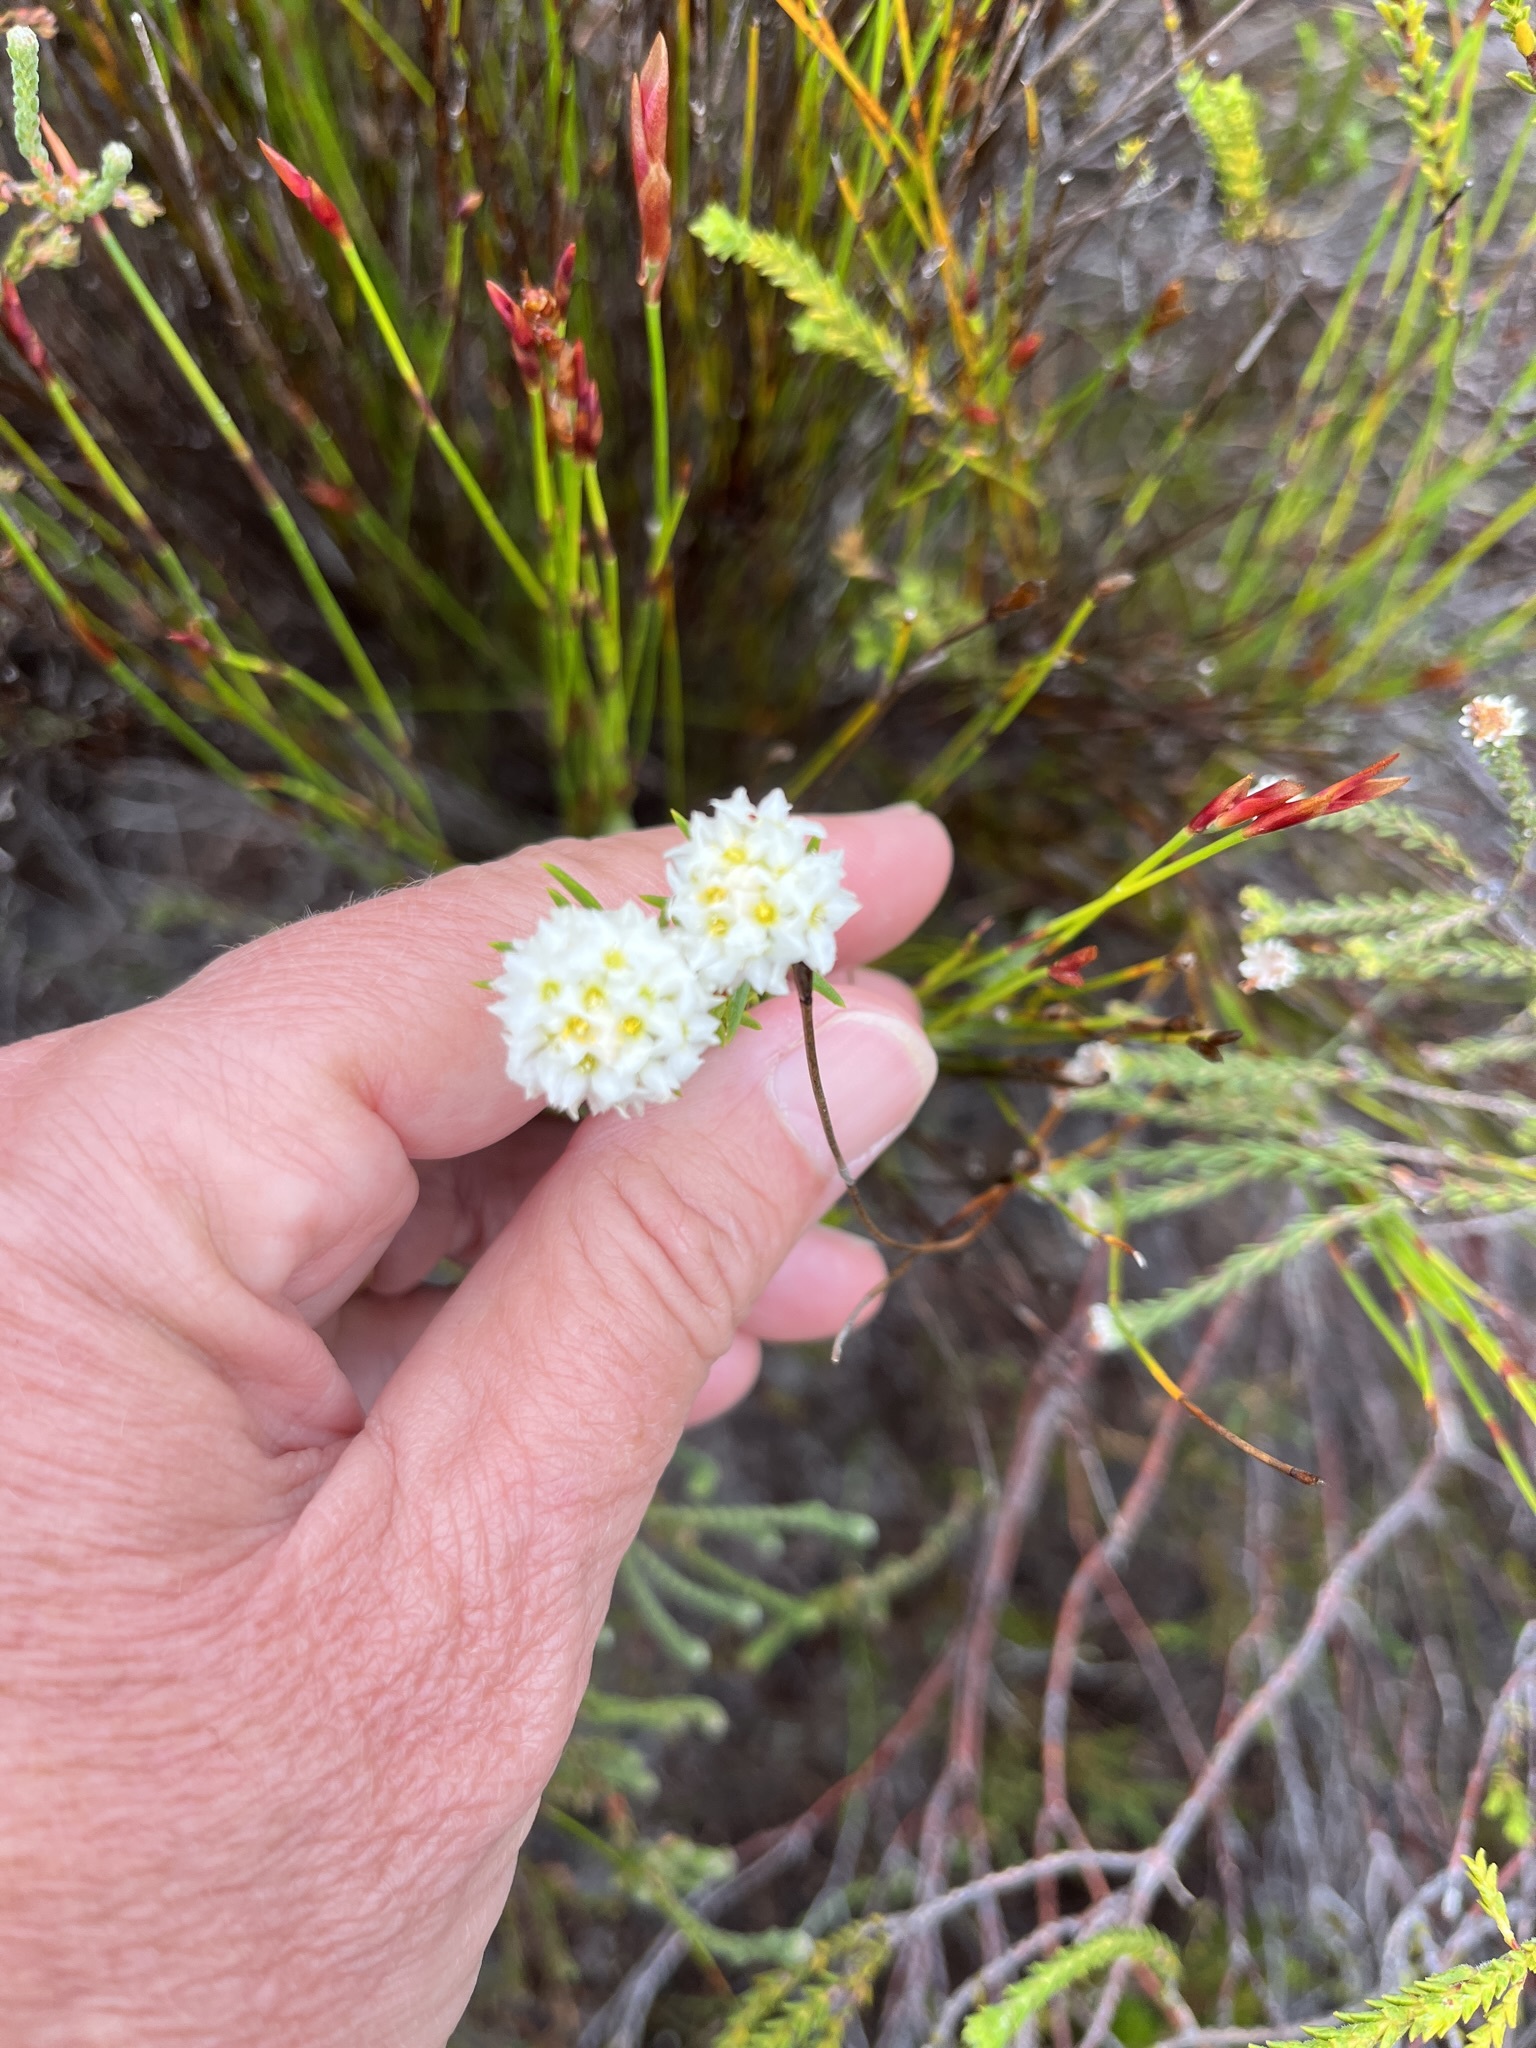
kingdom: Plantae
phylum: Tracheophyta
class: Magnoliopsida
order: Malvales
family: Thymelaeaceae
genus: Lachnaea
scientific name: Lachnaea densiflora
